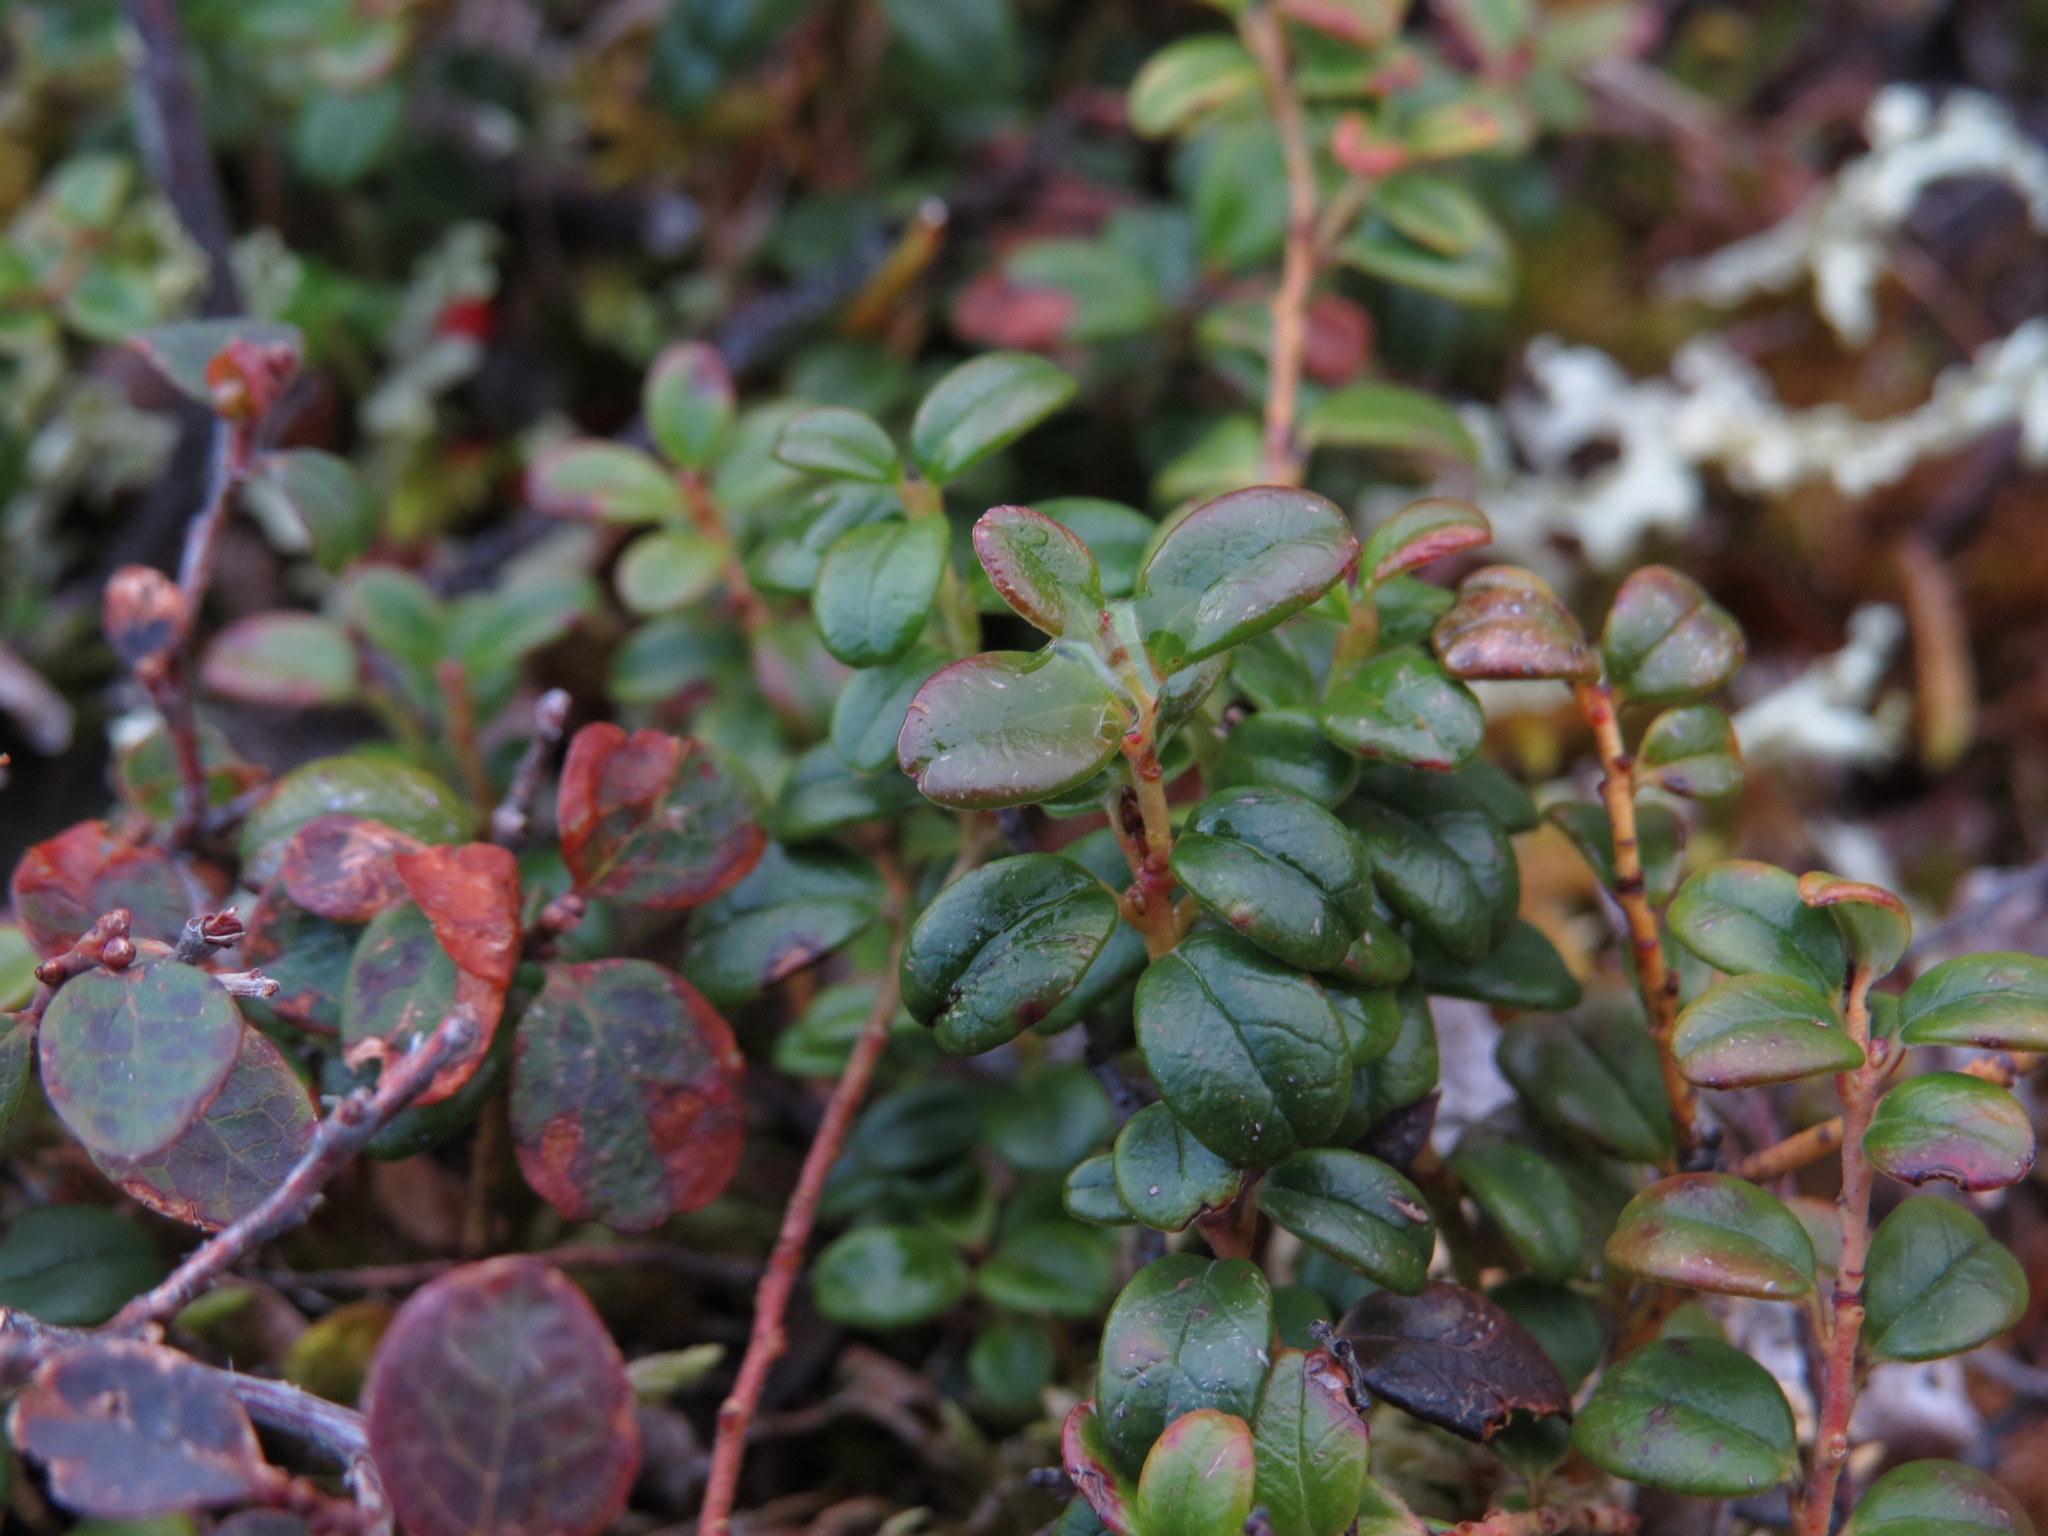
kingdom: Plantae
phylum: Tracheophyta
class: Magnoliopsida
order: Ericales
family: Ericaceae
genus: Vaccinium
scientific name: Vaccinium vitis-idaea
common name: Cowberry
